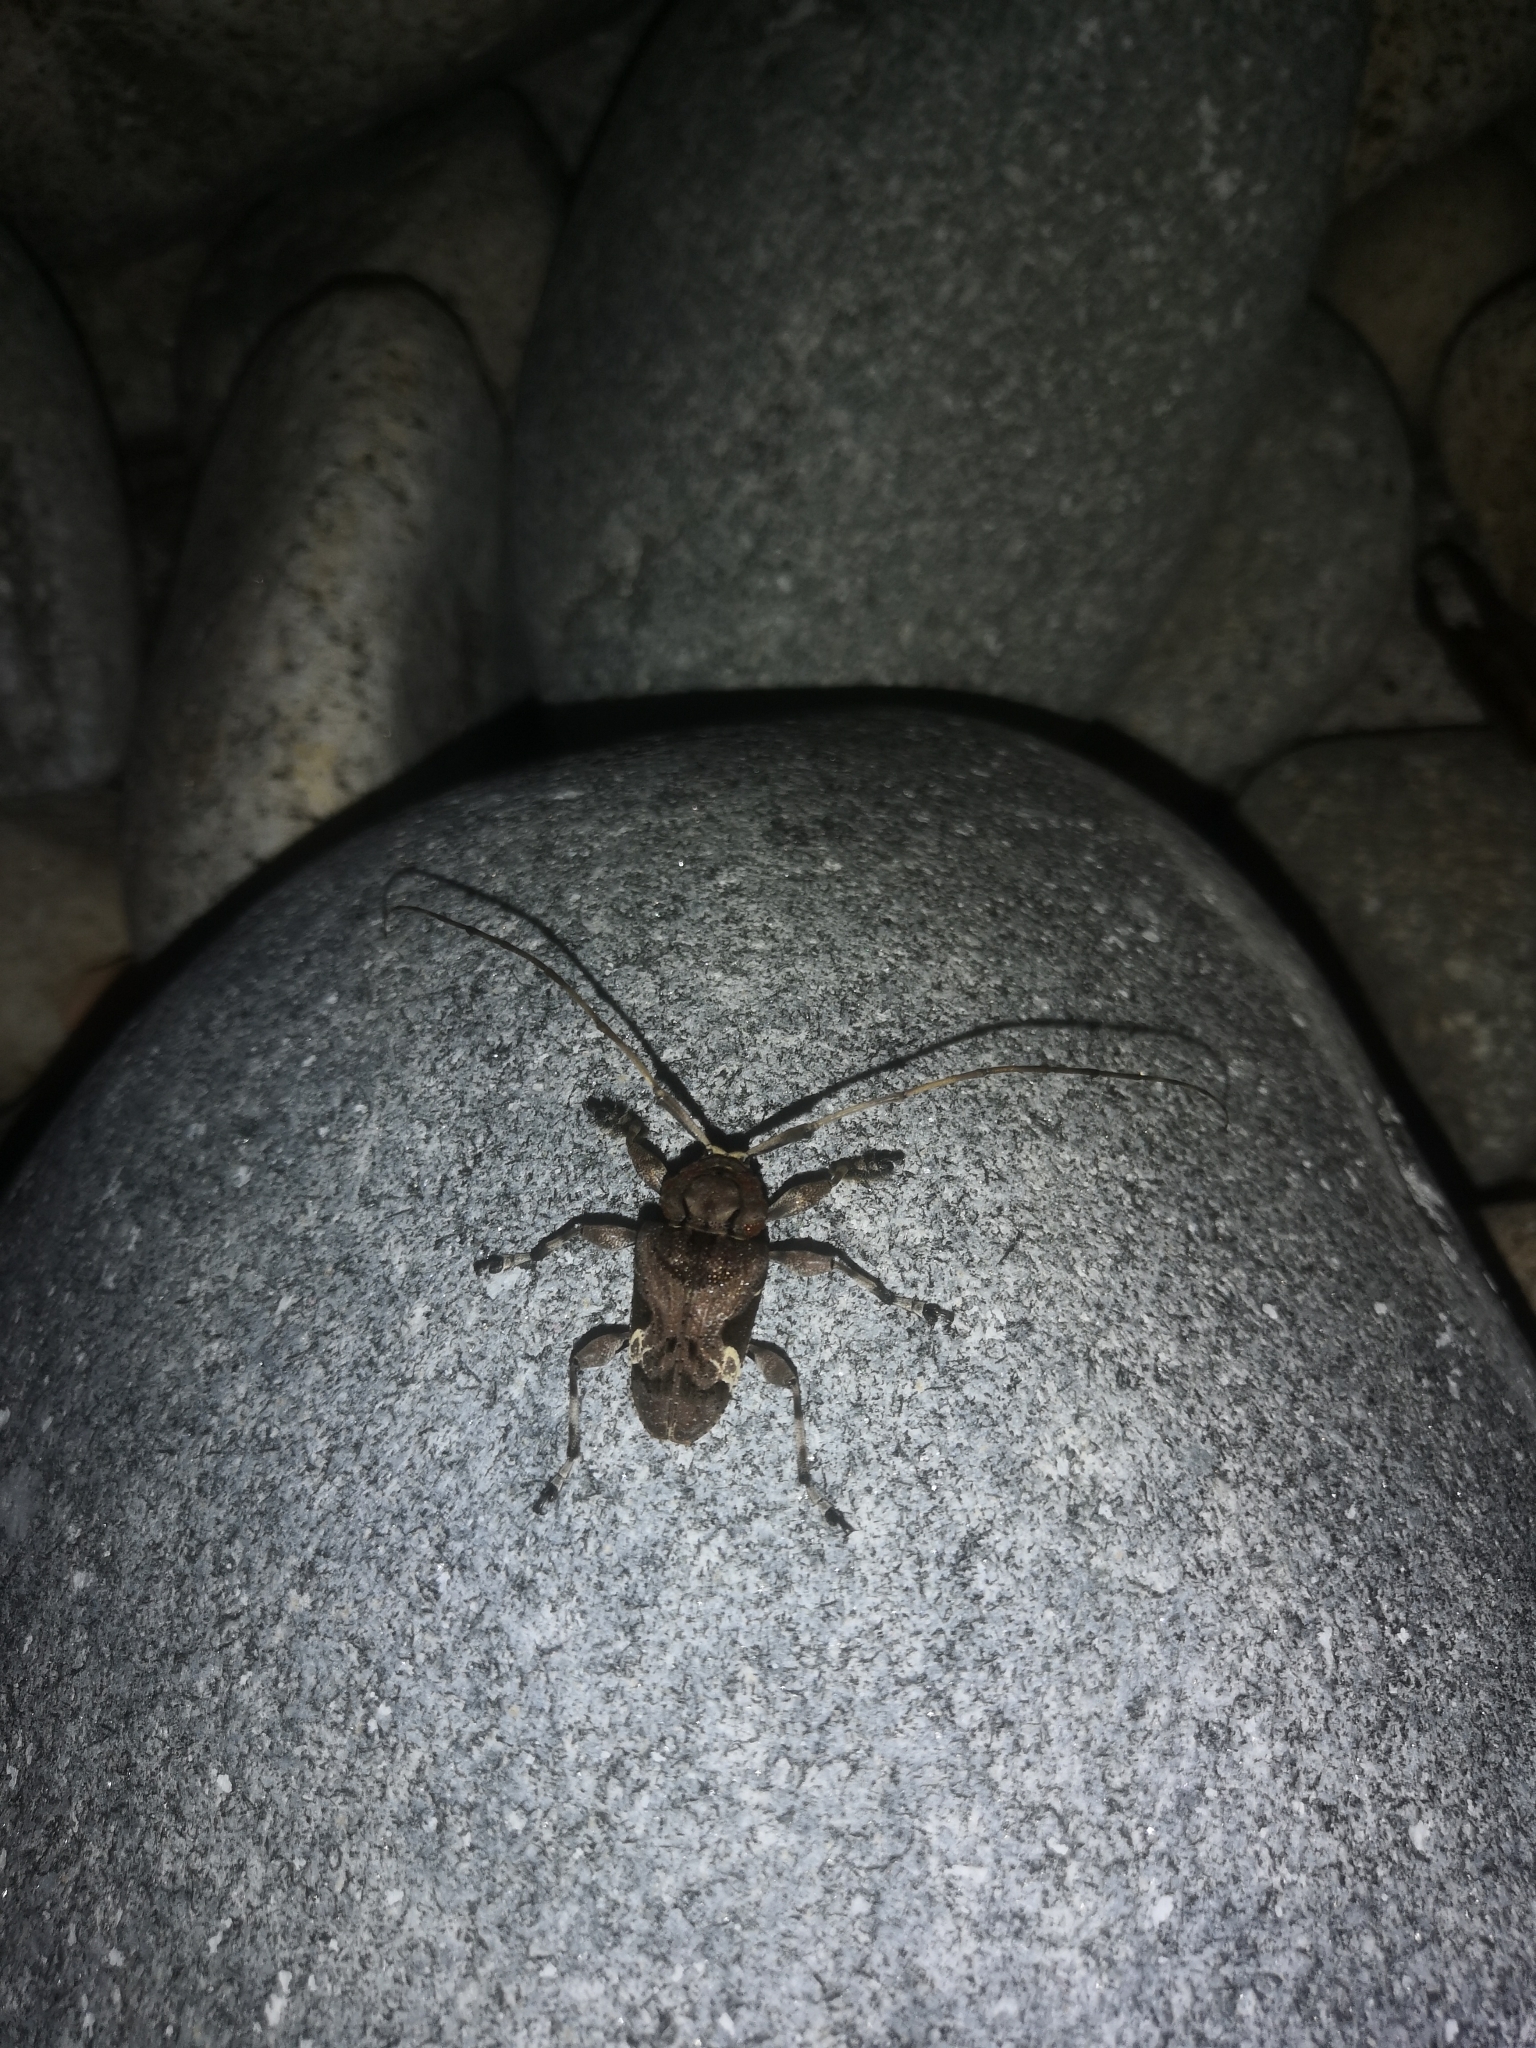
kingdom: Animalia
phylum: Arthropoda
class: Insecta
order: Coleoptera
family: Cerambycidae
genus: Lagocheirus
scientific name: Lagocheirus araneiformis
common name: Beetle
